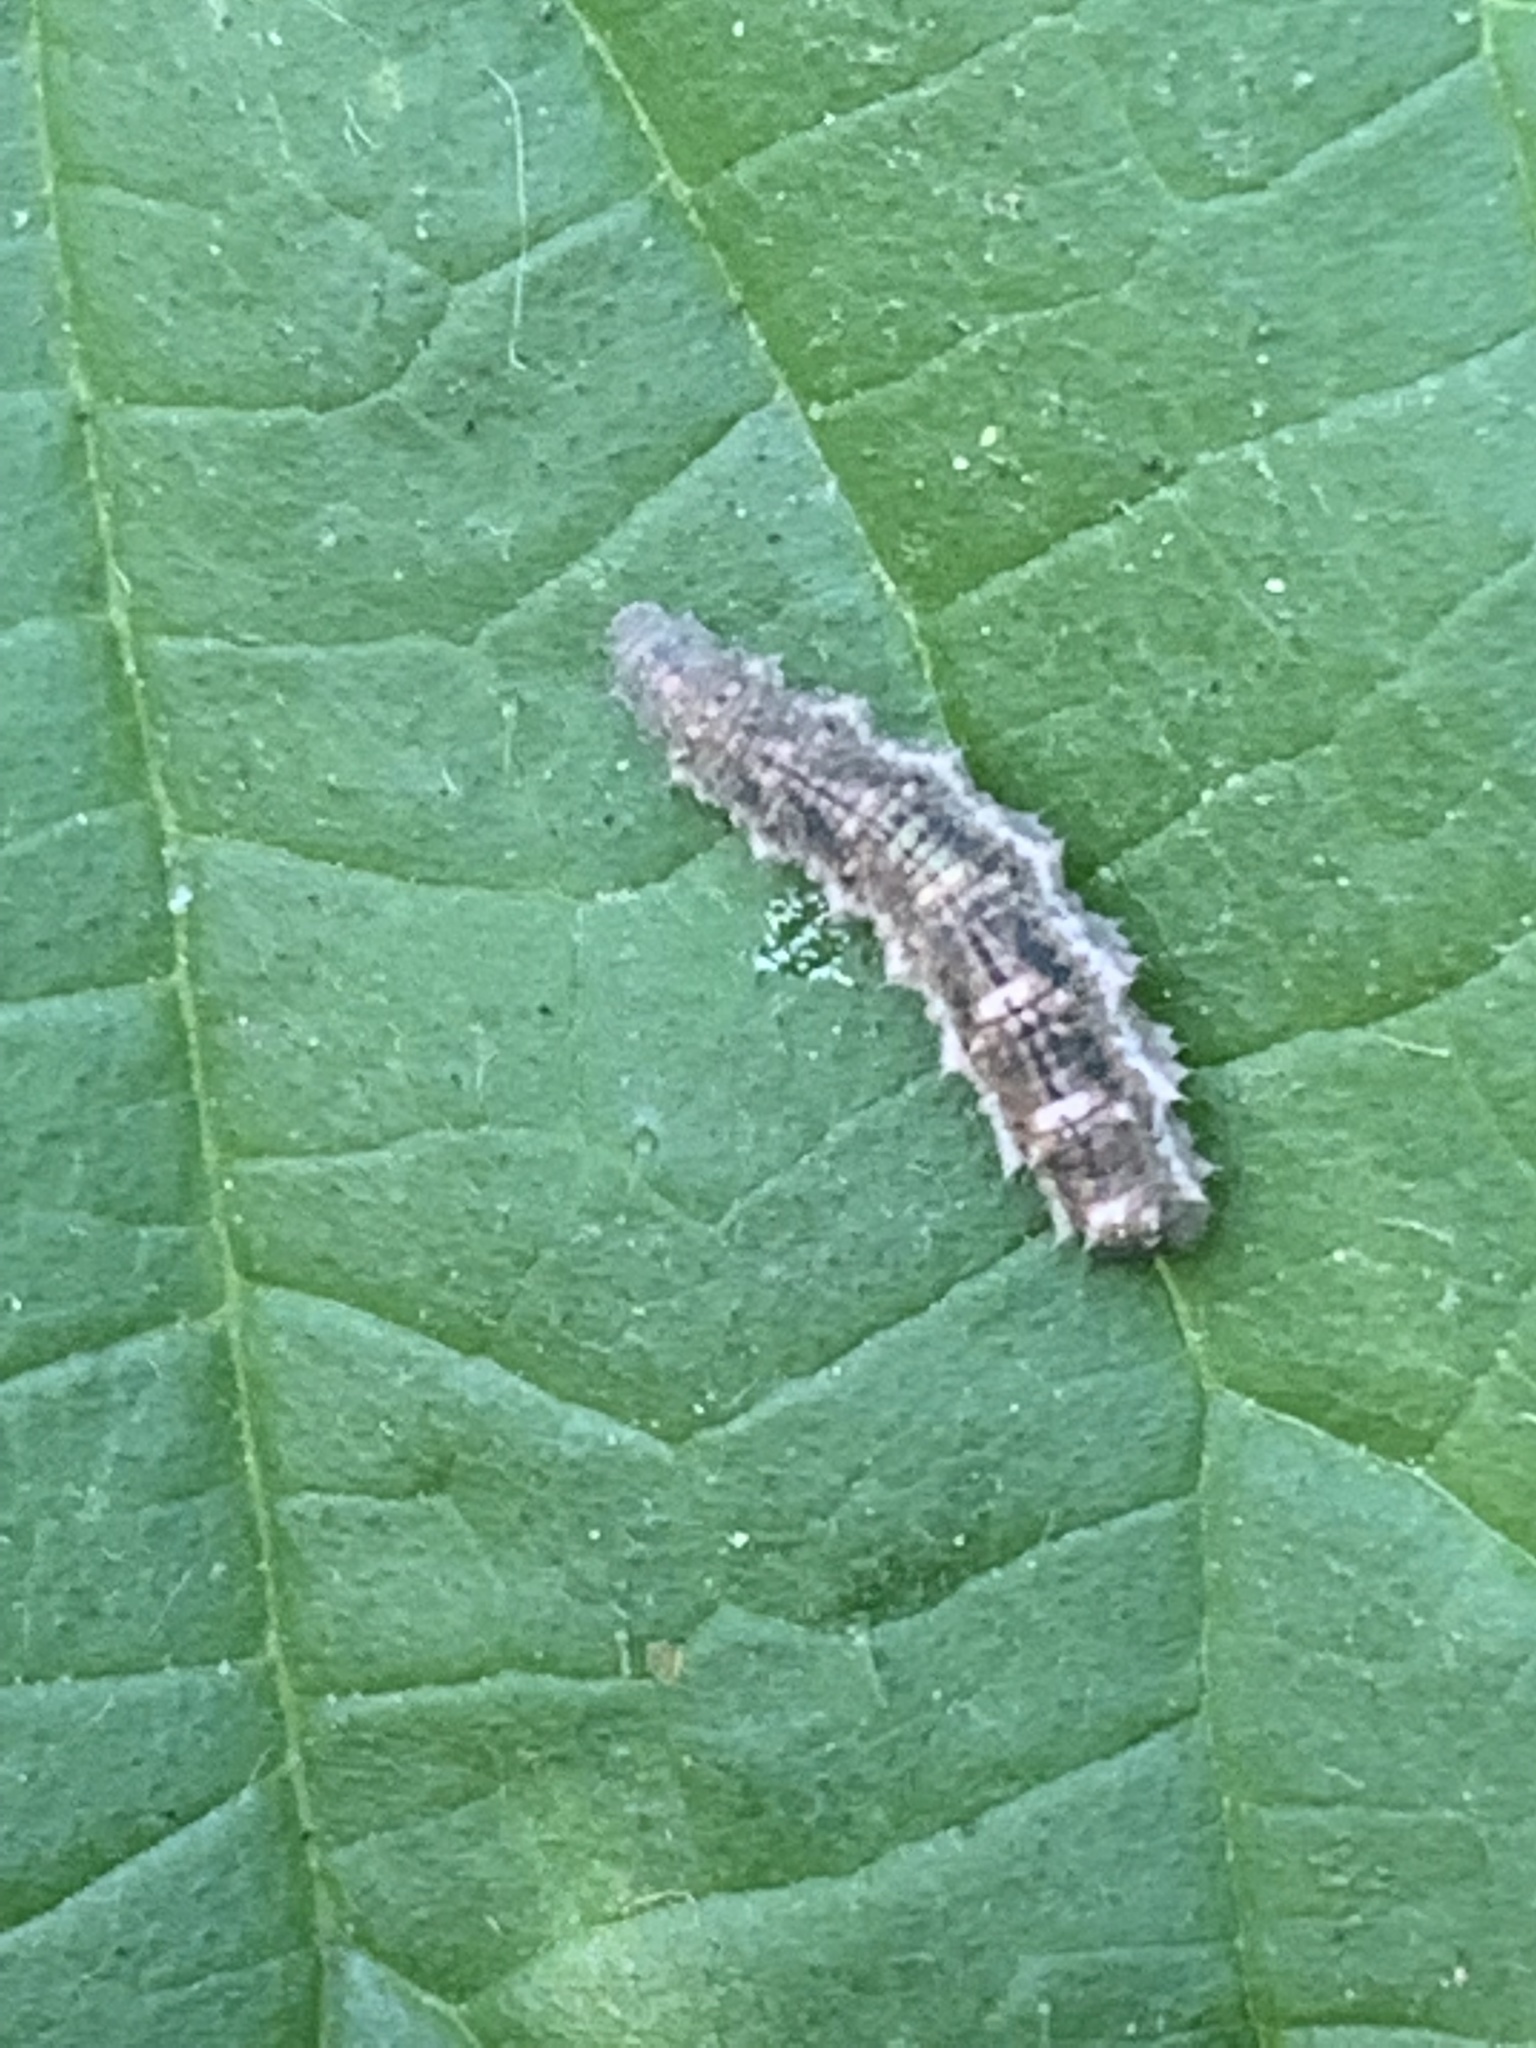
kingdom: Animalia
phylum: Arthropoda
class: Insecta
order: Diptera
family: Syrphidae
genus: Eupeodes
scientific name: Eupeodes
